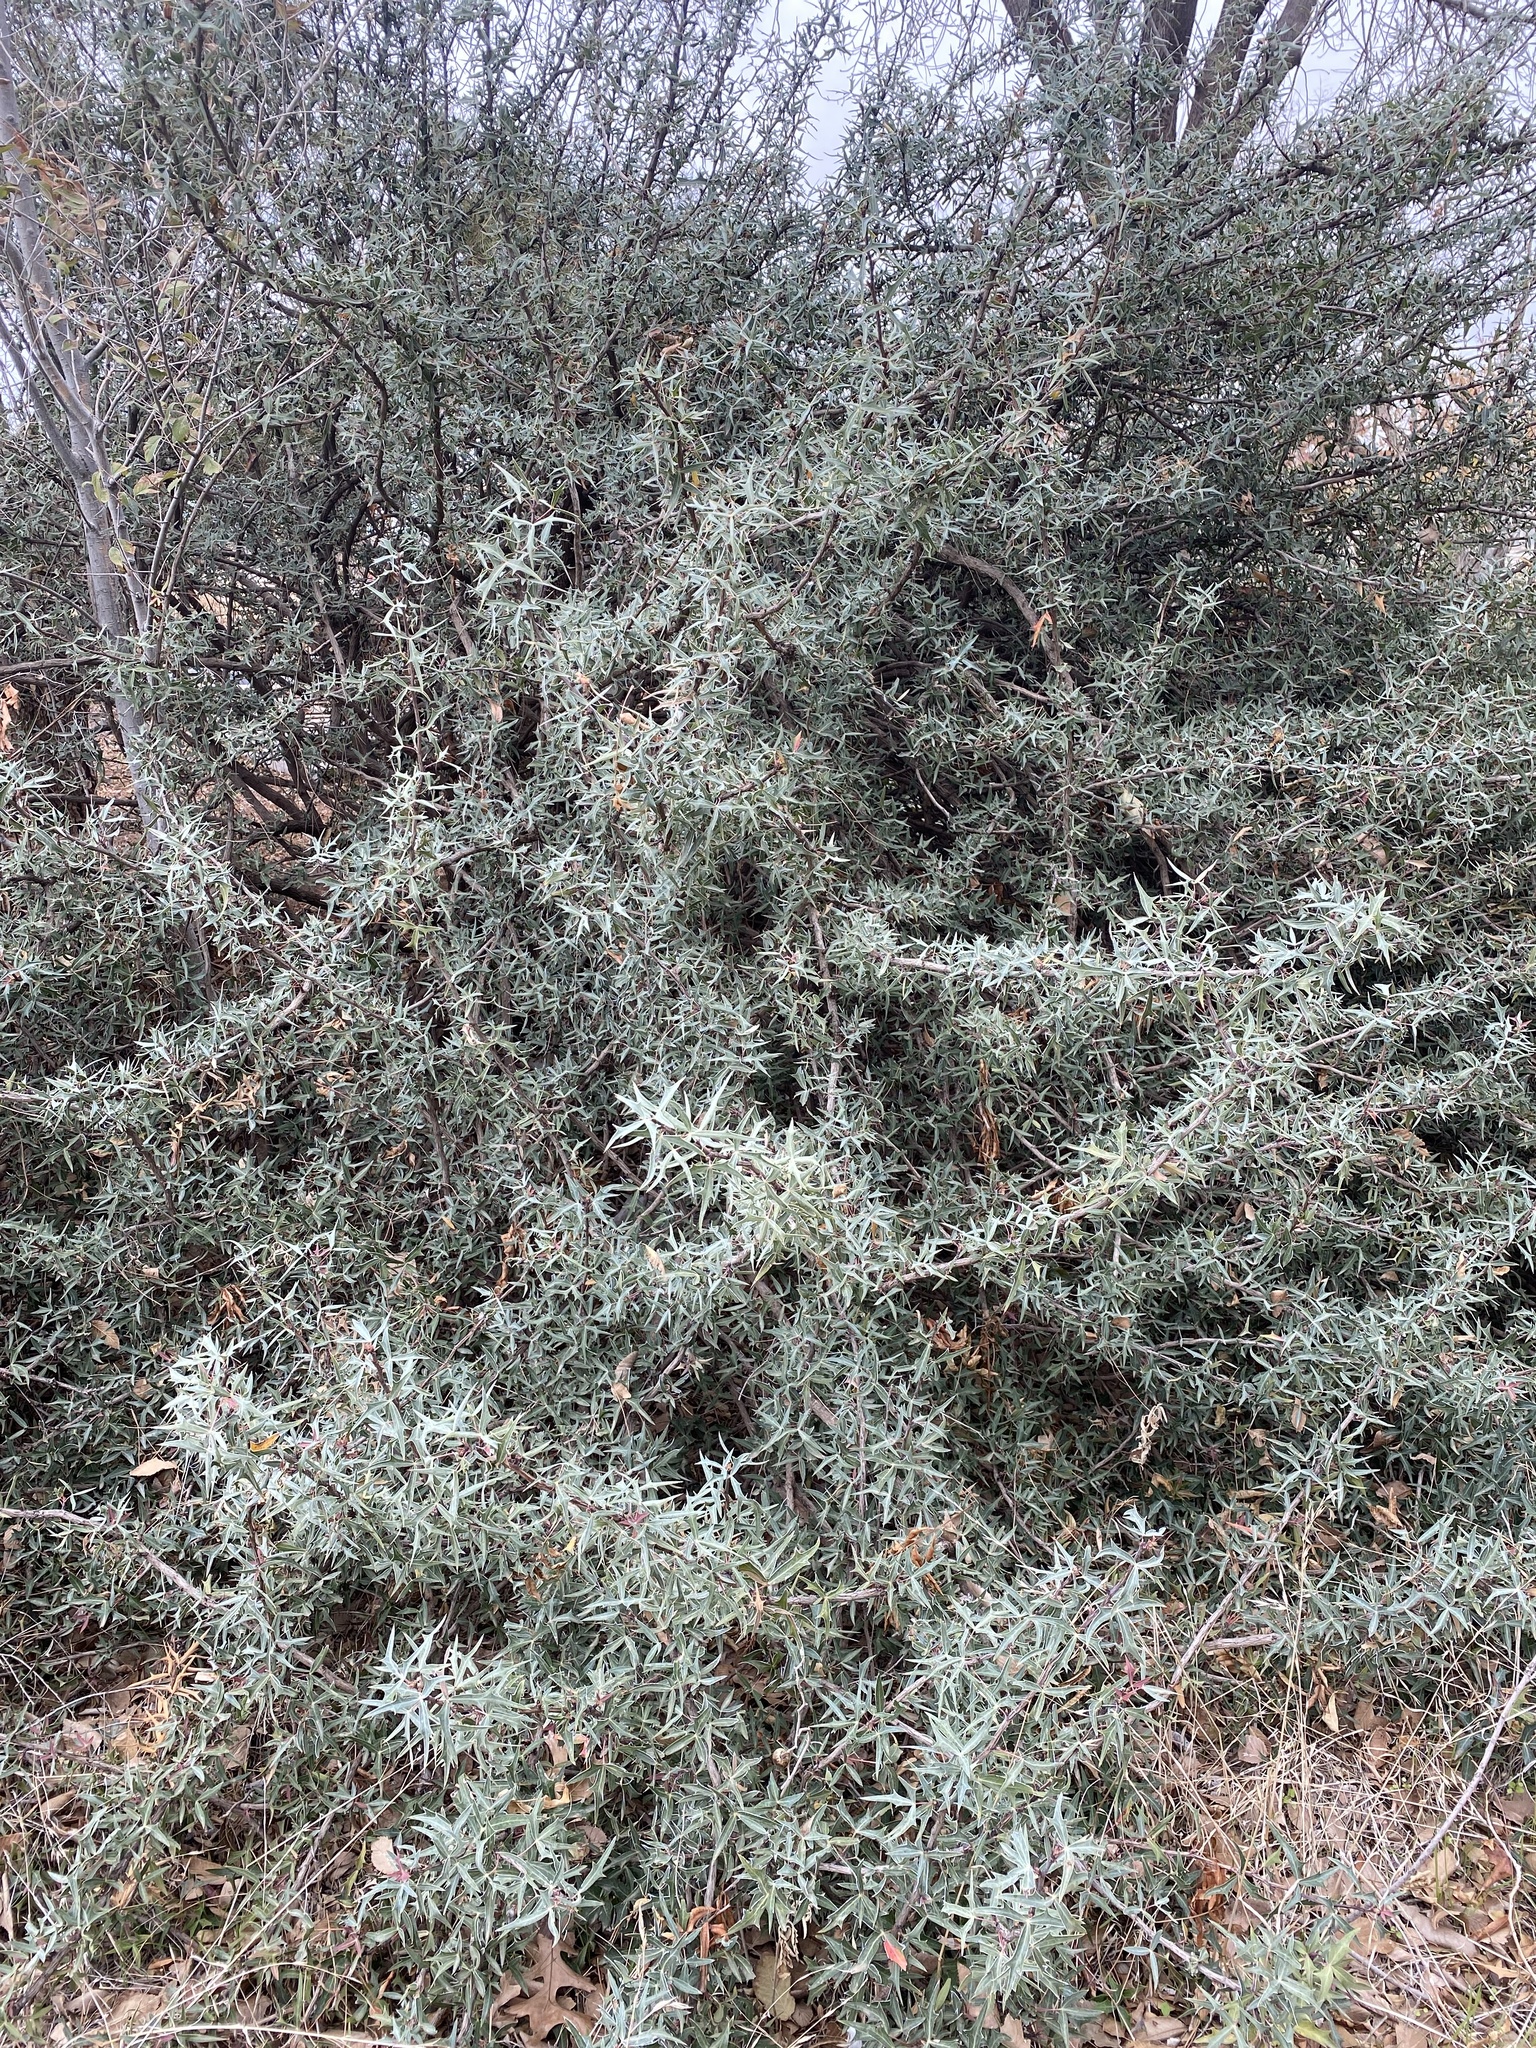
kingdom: Plantae
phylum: Tracheophyta
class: Magnoliopsida
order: Ranunculales
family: Berberidaceae
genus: Alloberberis
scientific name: Alloberberis trifoliolata
